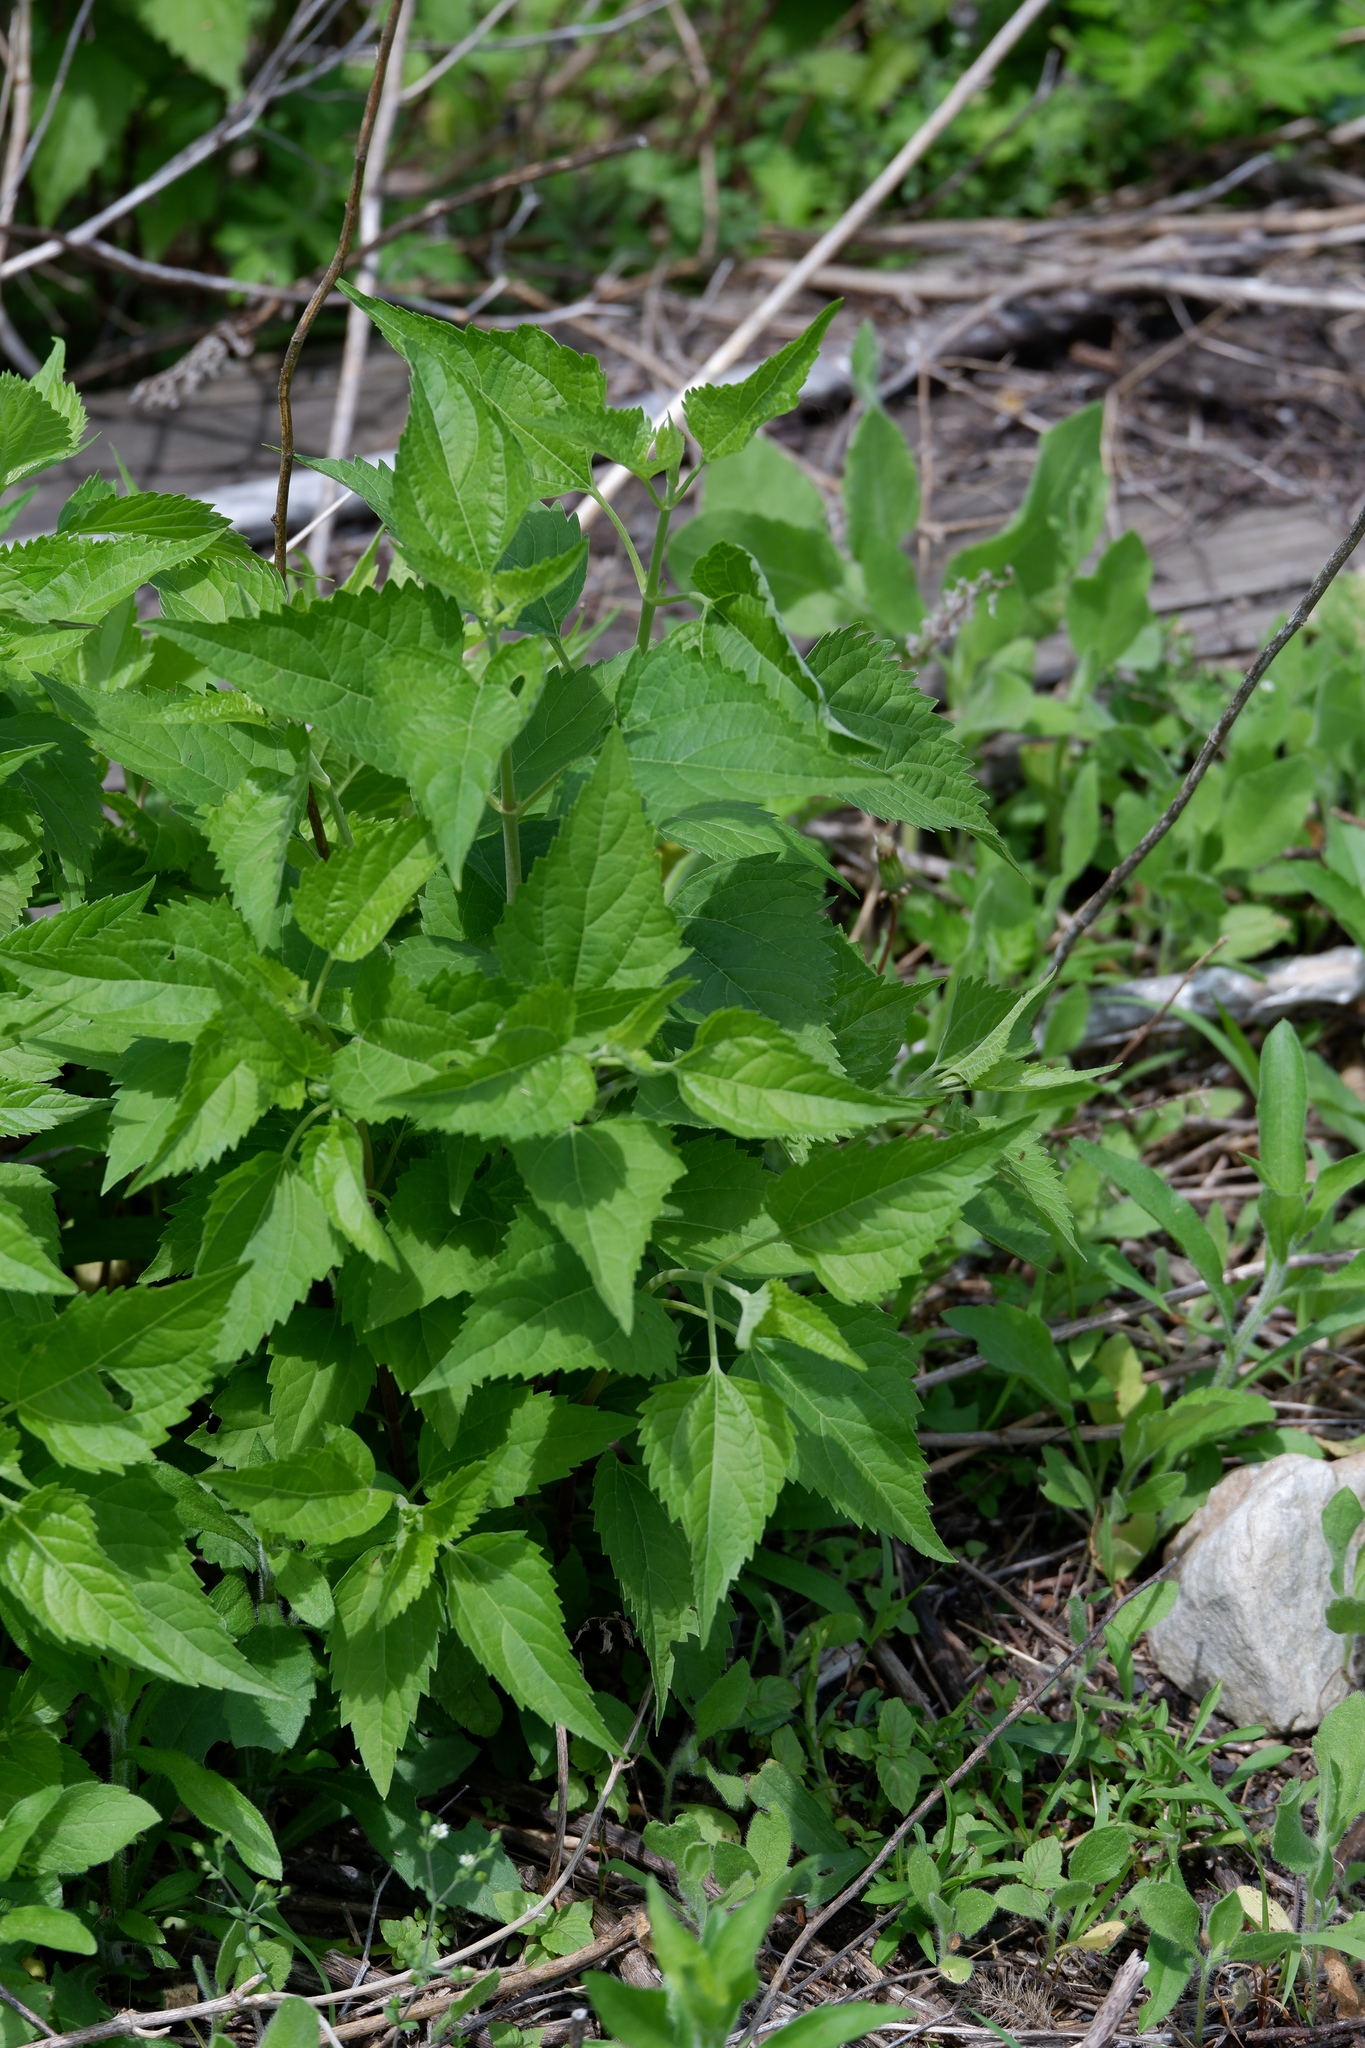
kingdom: Plantae
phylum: Tracheophyta
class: Magnoliopsida
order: Asterales
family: Asteraceae
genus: Ageratina
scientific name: Ageratina altissima
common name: White snakeroot
